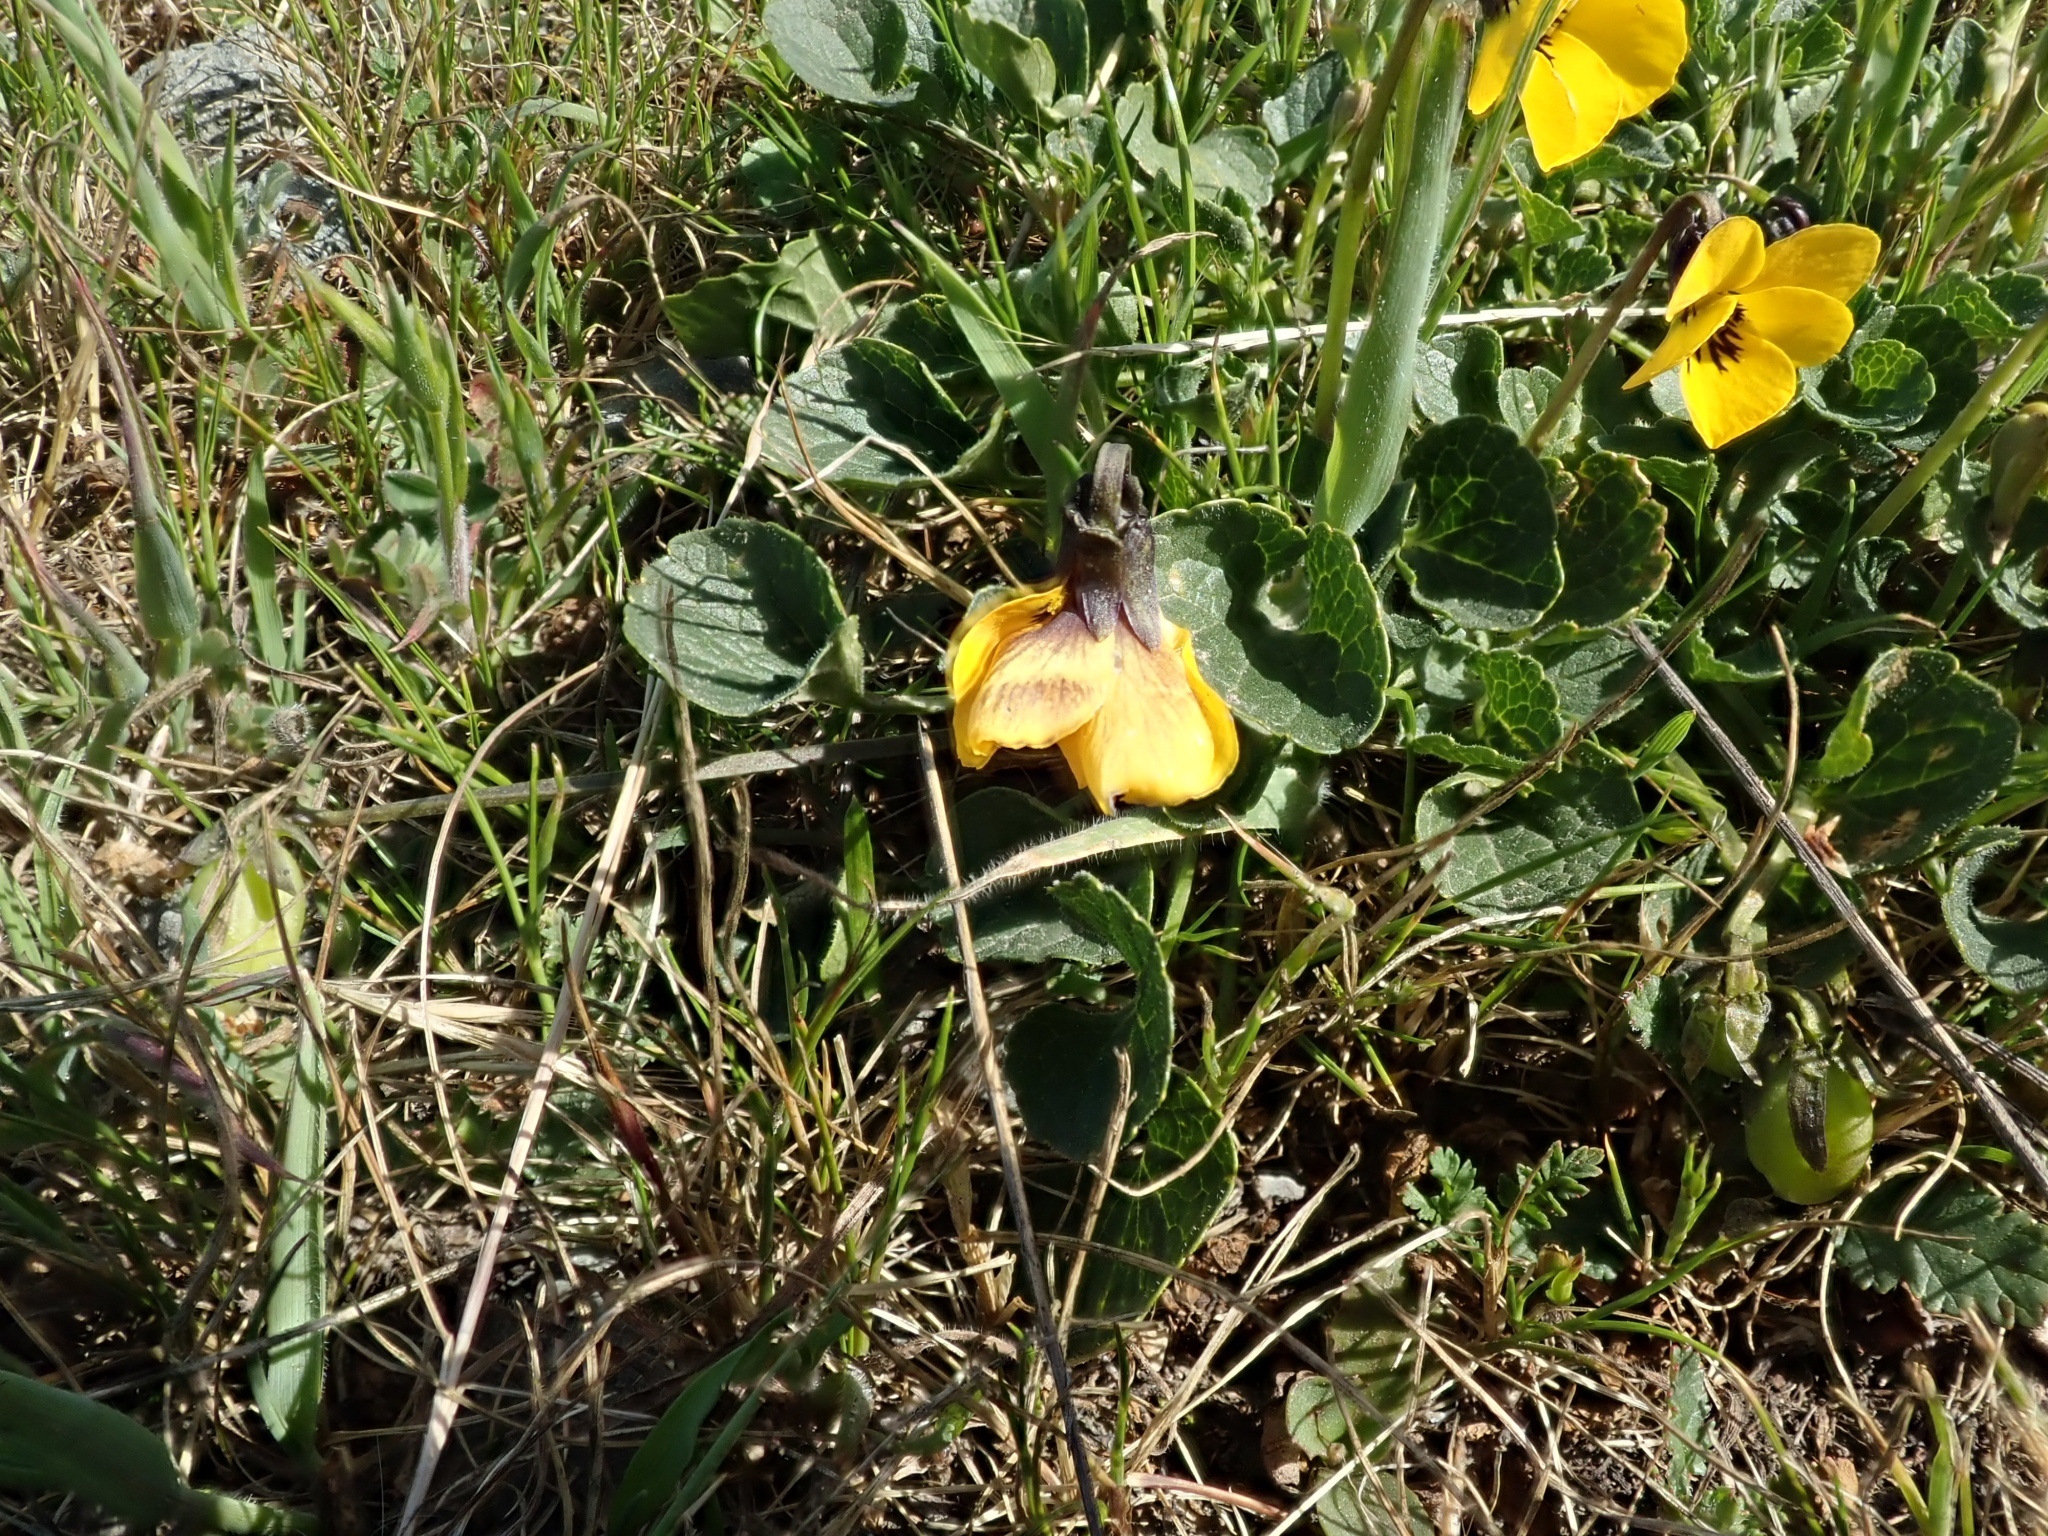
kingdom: Plantae
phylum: Tracheophyta
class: Magnoliopsida
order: Malpighiales
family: Violaceae
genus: Viola
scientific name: Viola pedunculata
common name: California golden violet
